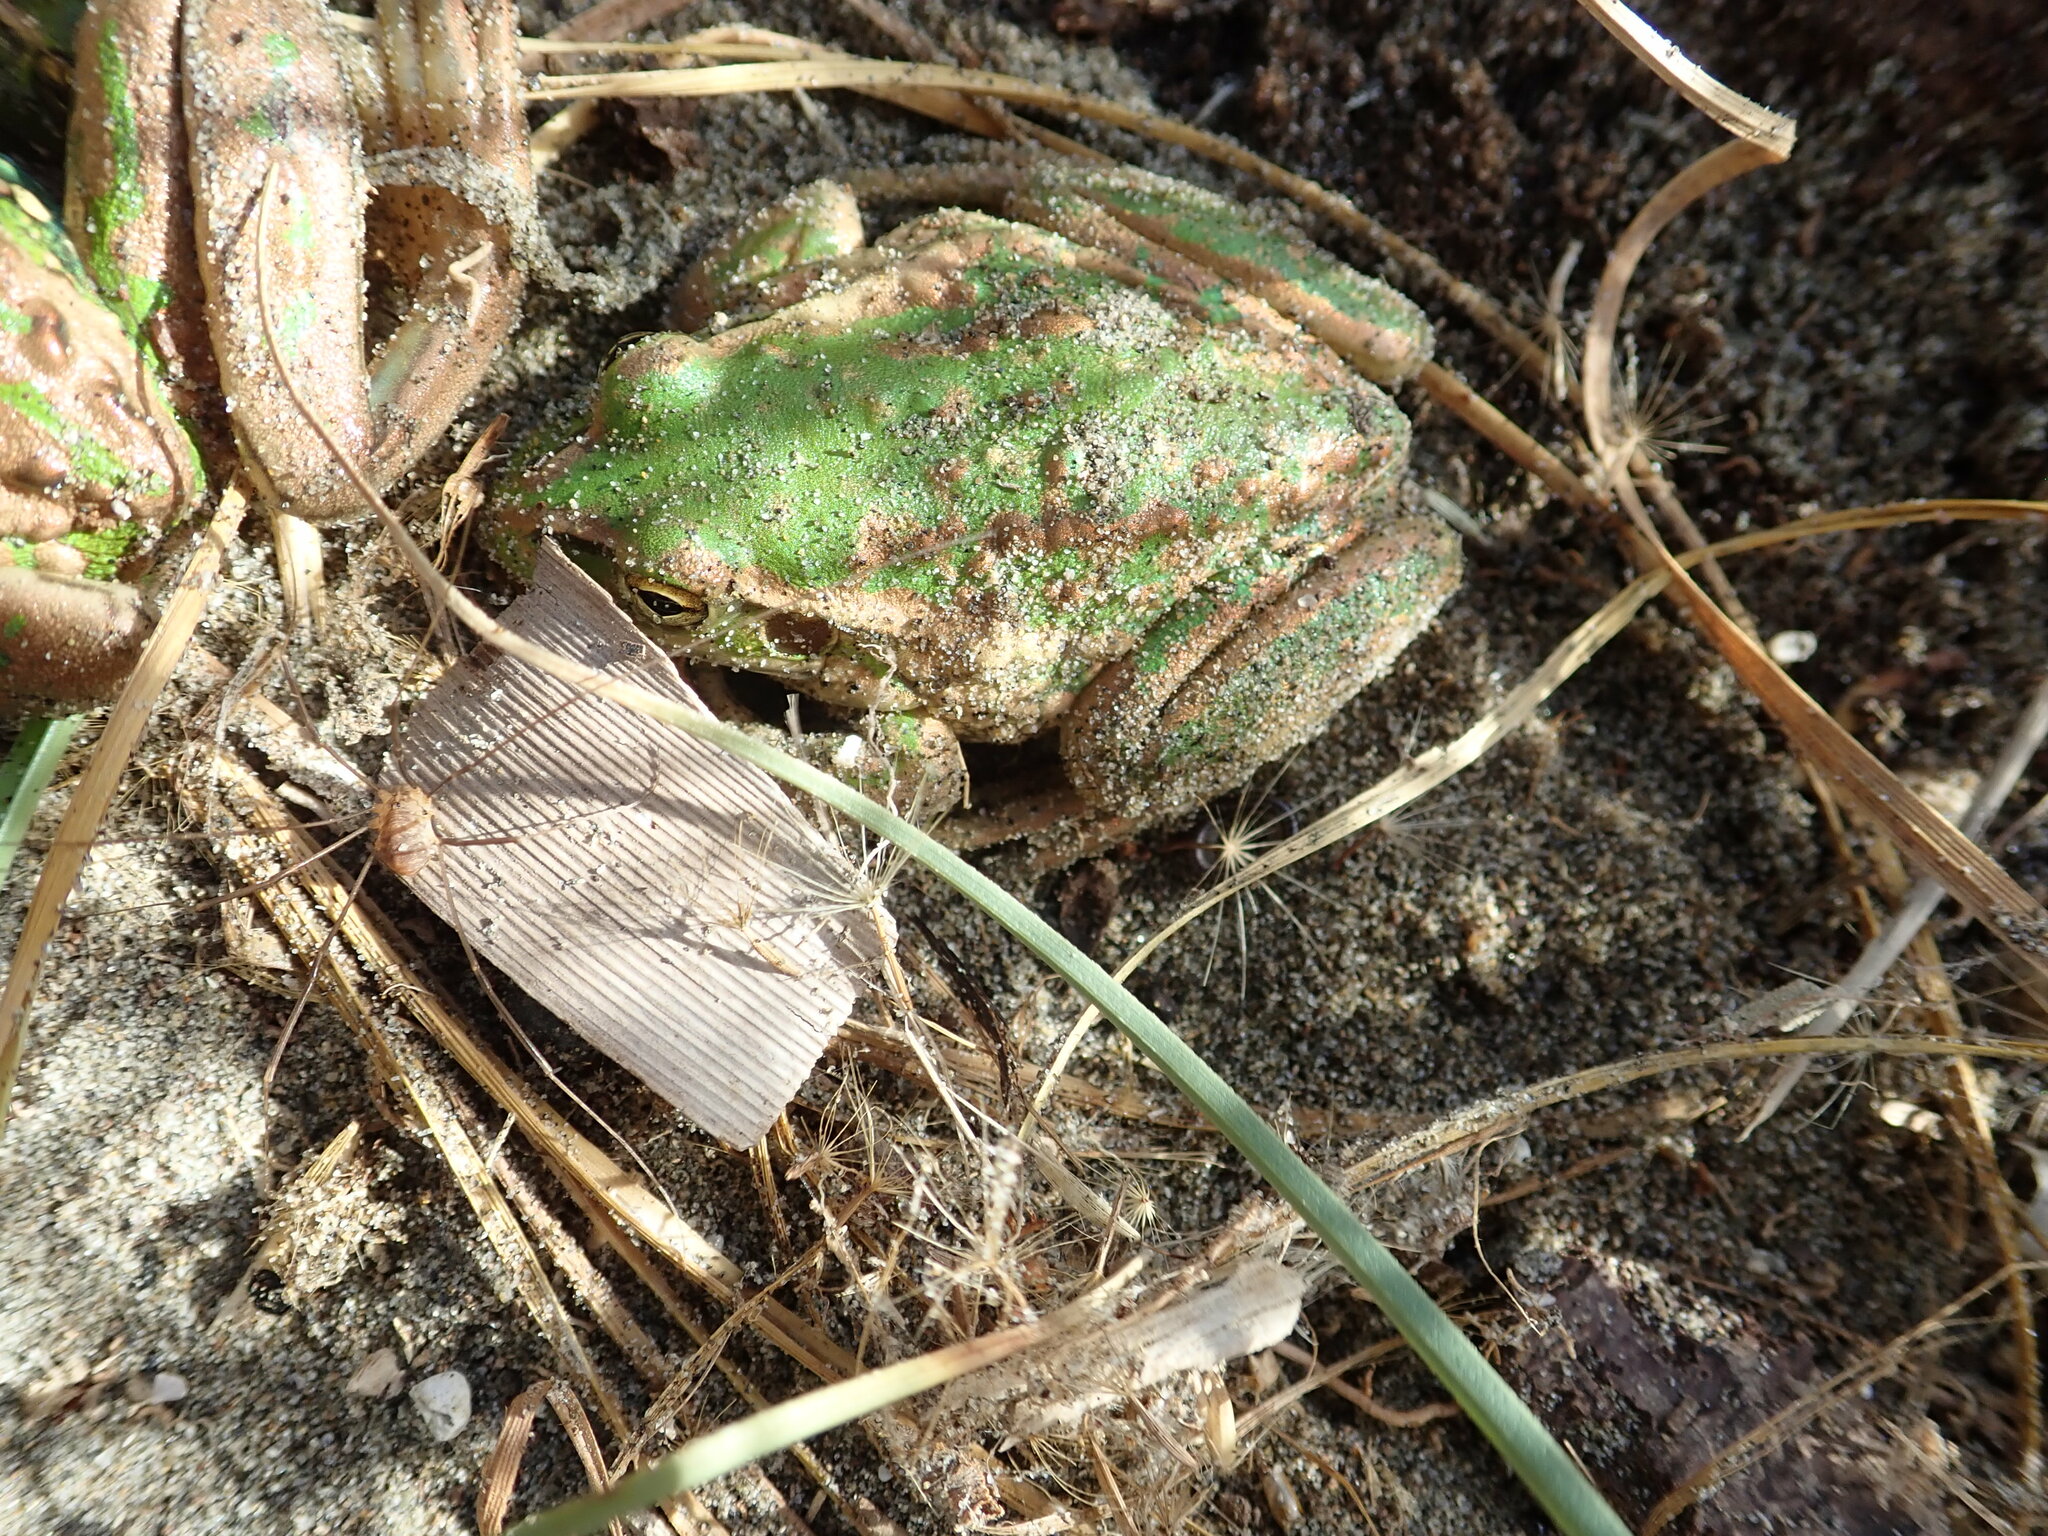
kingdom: Animalia
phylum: Chordata
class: Amphibia
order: Anura
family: Pelodryadidae
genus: Ranoidea
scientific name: Ranoidea raniformis
